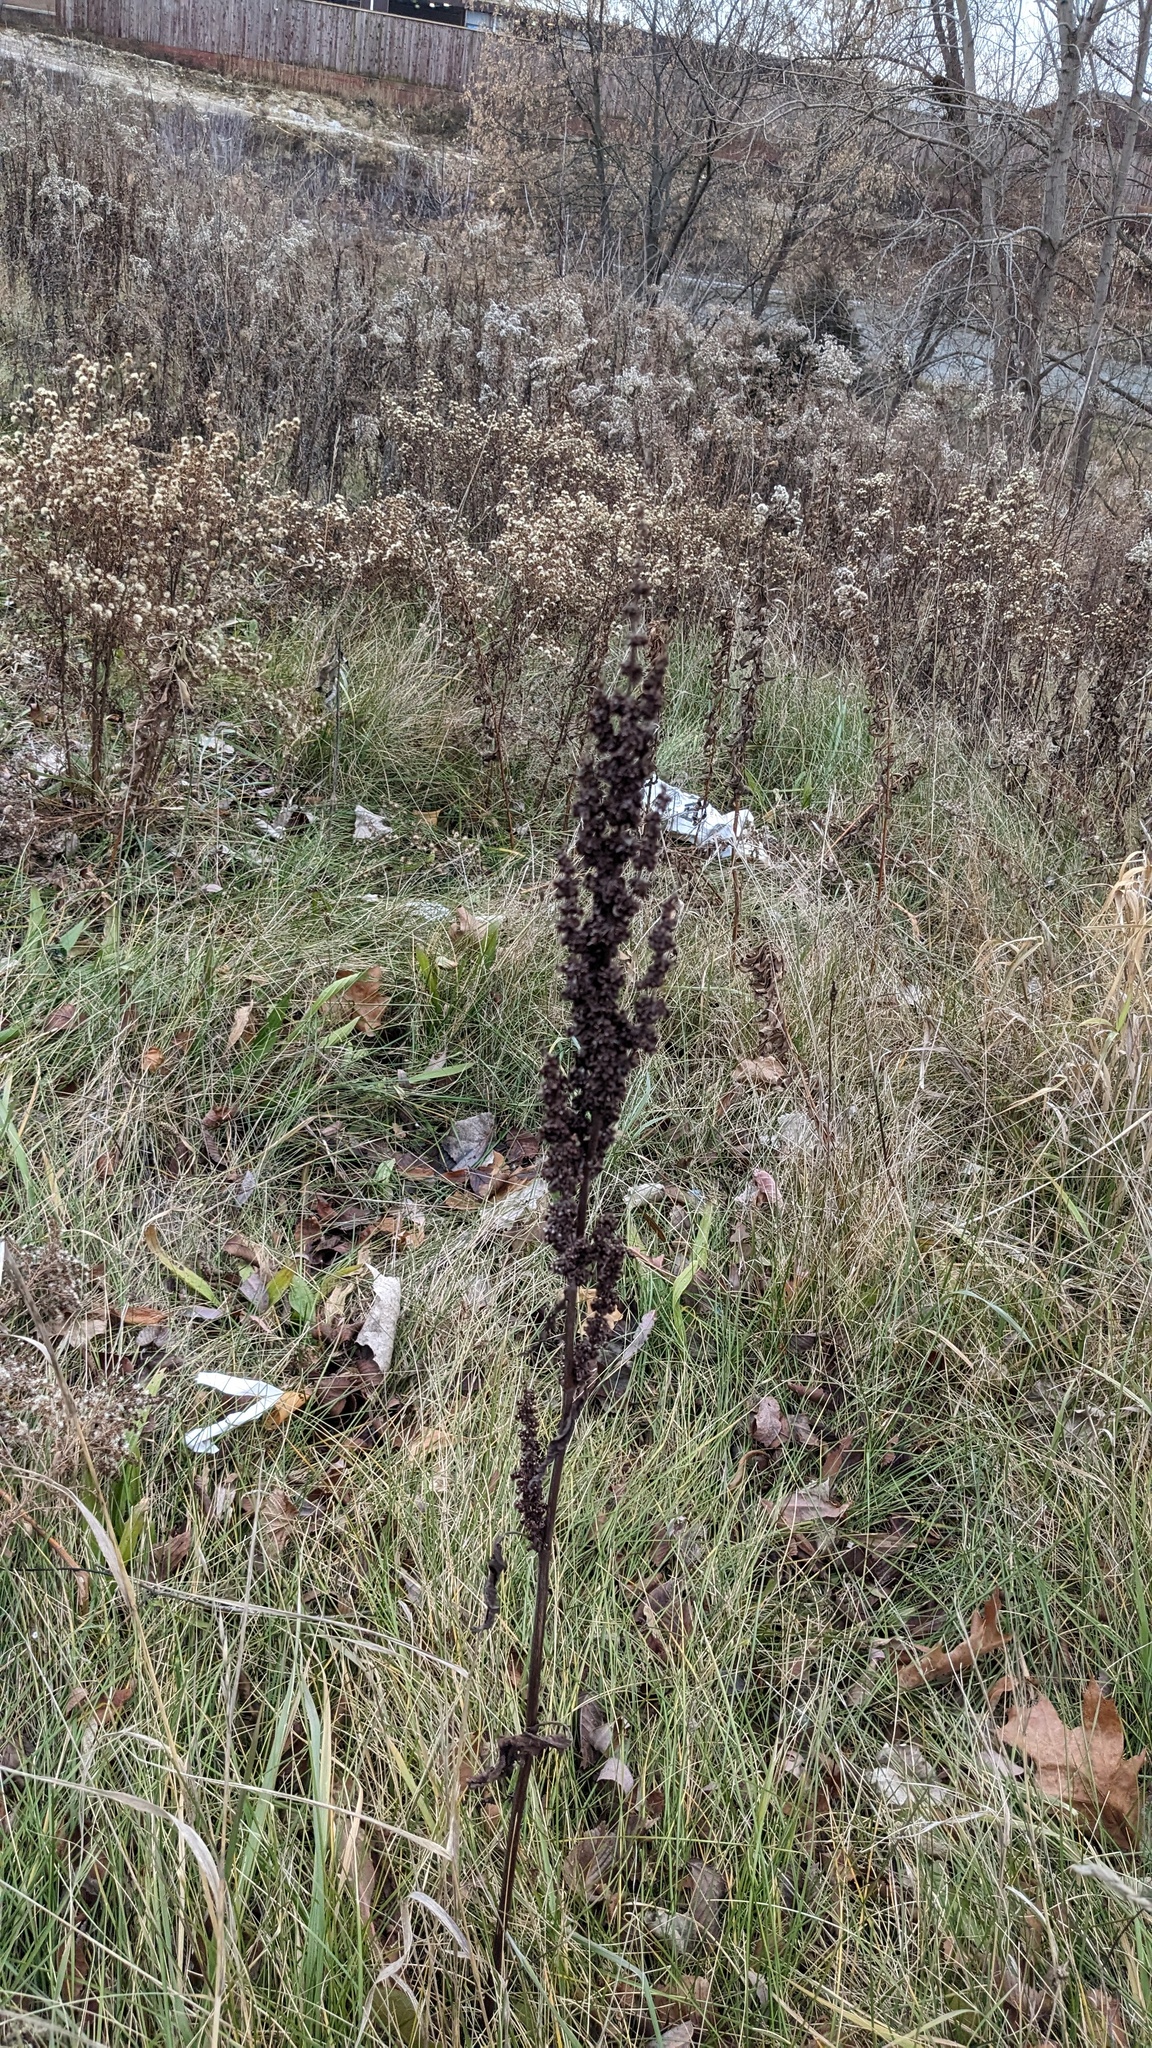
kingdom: Plantae
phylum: Tracheophyta
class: Magnoliopsida
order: Caryophyllales
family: Polygonaceae
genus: Rumex
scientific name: Rumex crispus
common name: Curled dock
